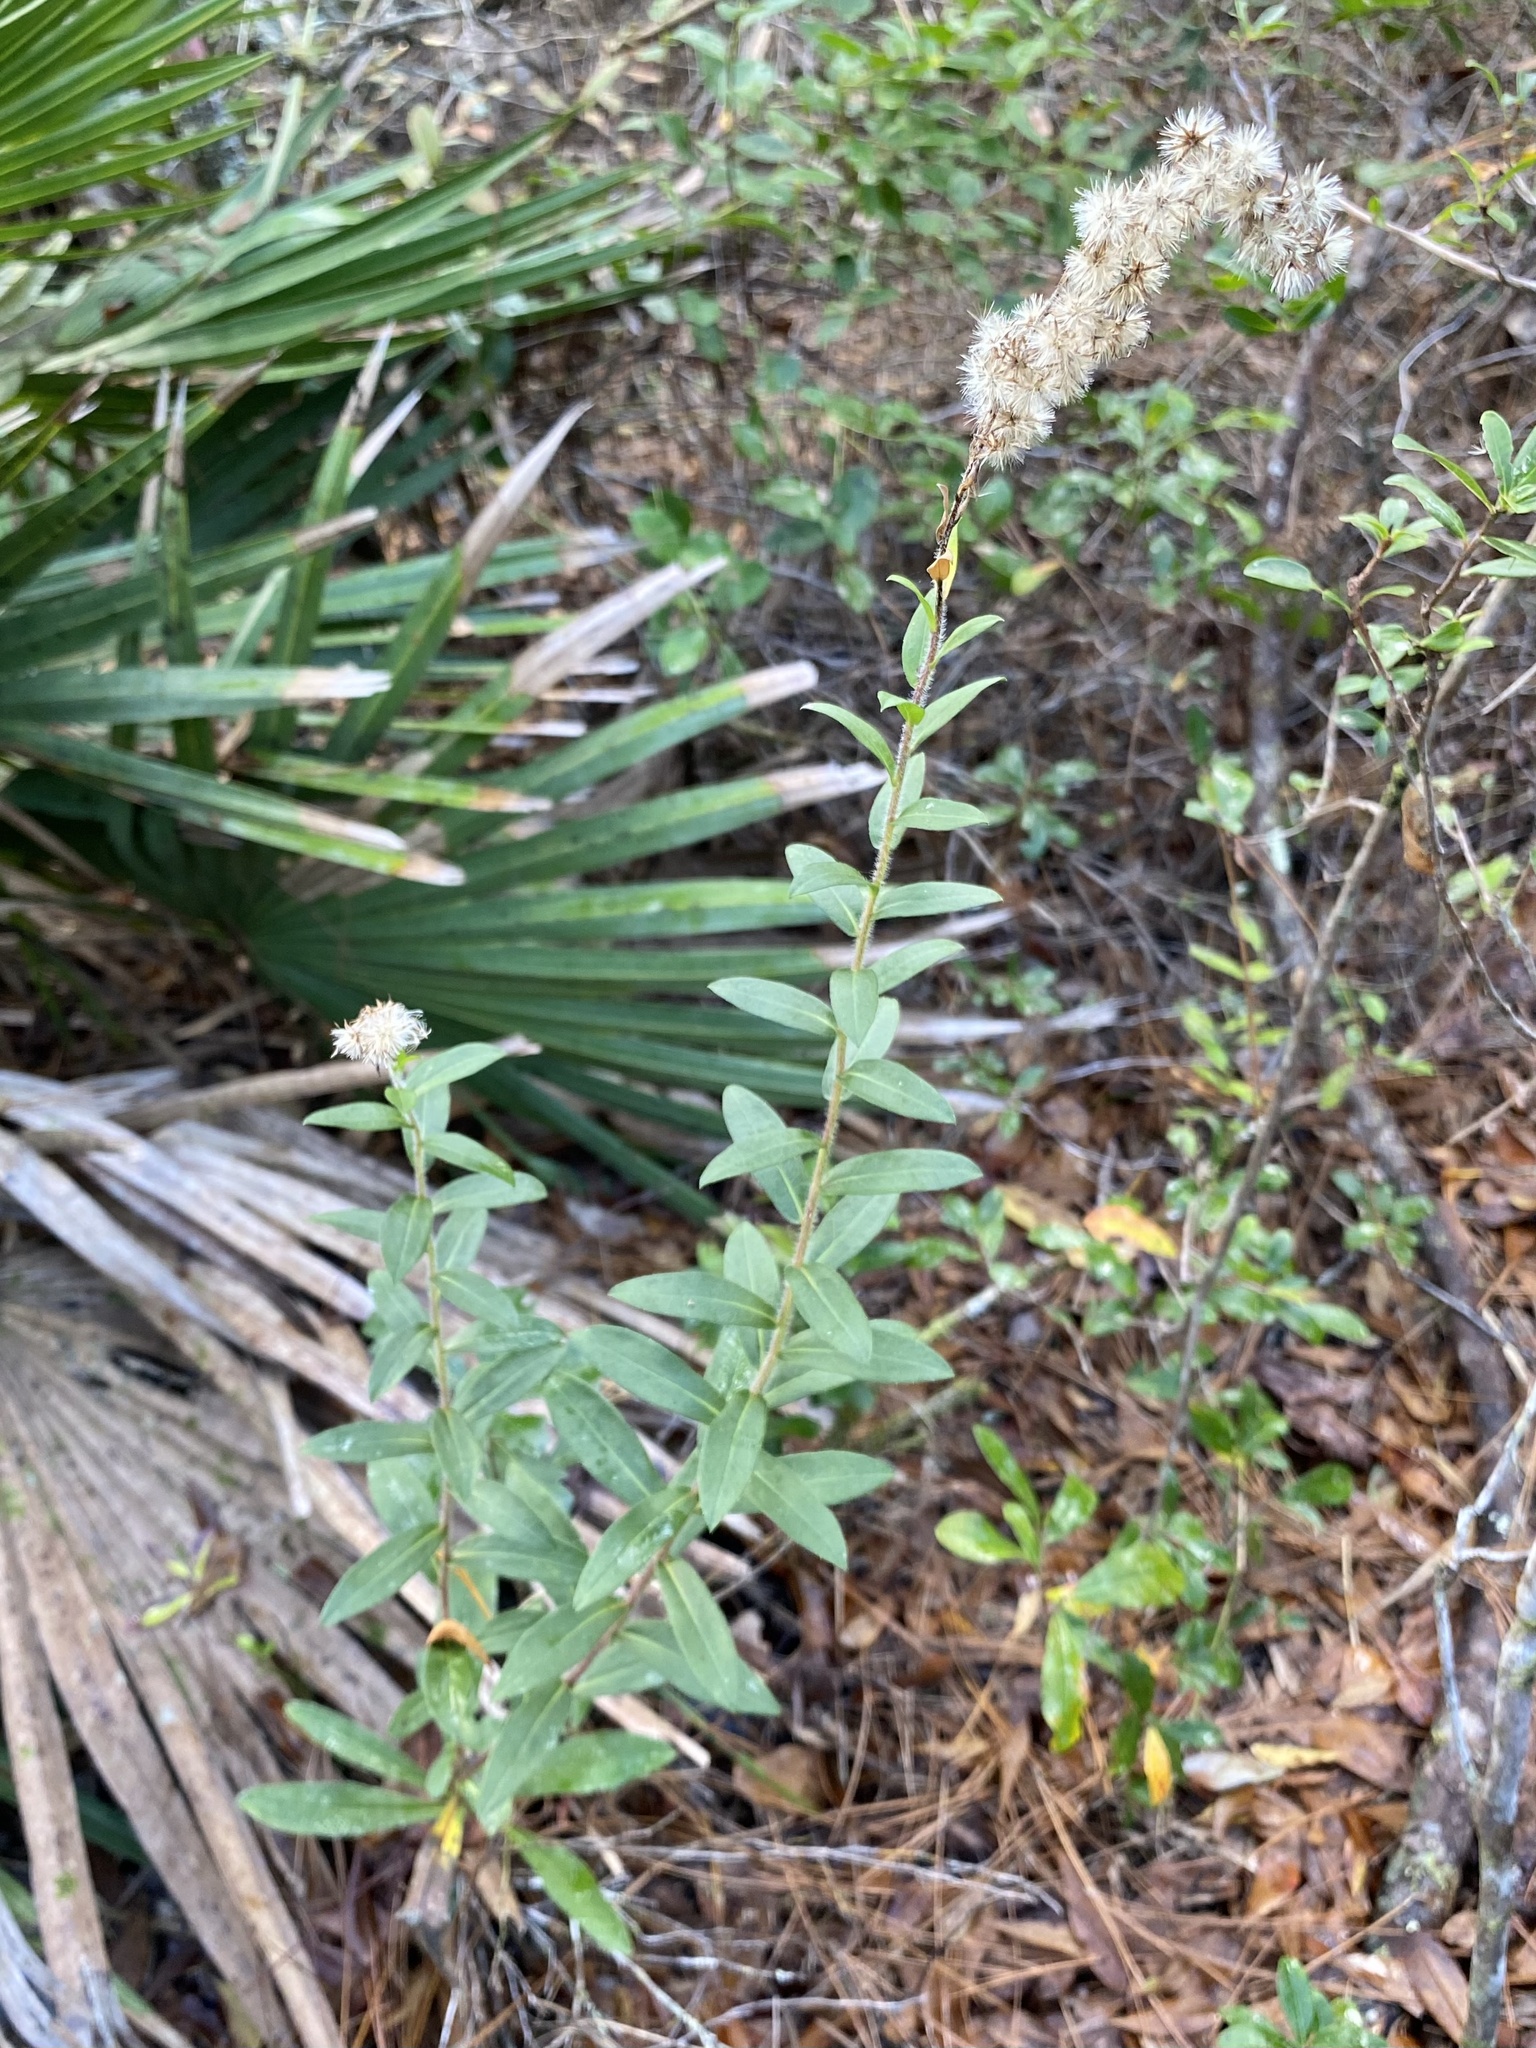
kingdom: Plantae
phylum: Tracheophyta
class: Magnoliopsida
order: Asterales
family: Asteraceae
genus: Solidago
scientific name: Solidago chapmanii
